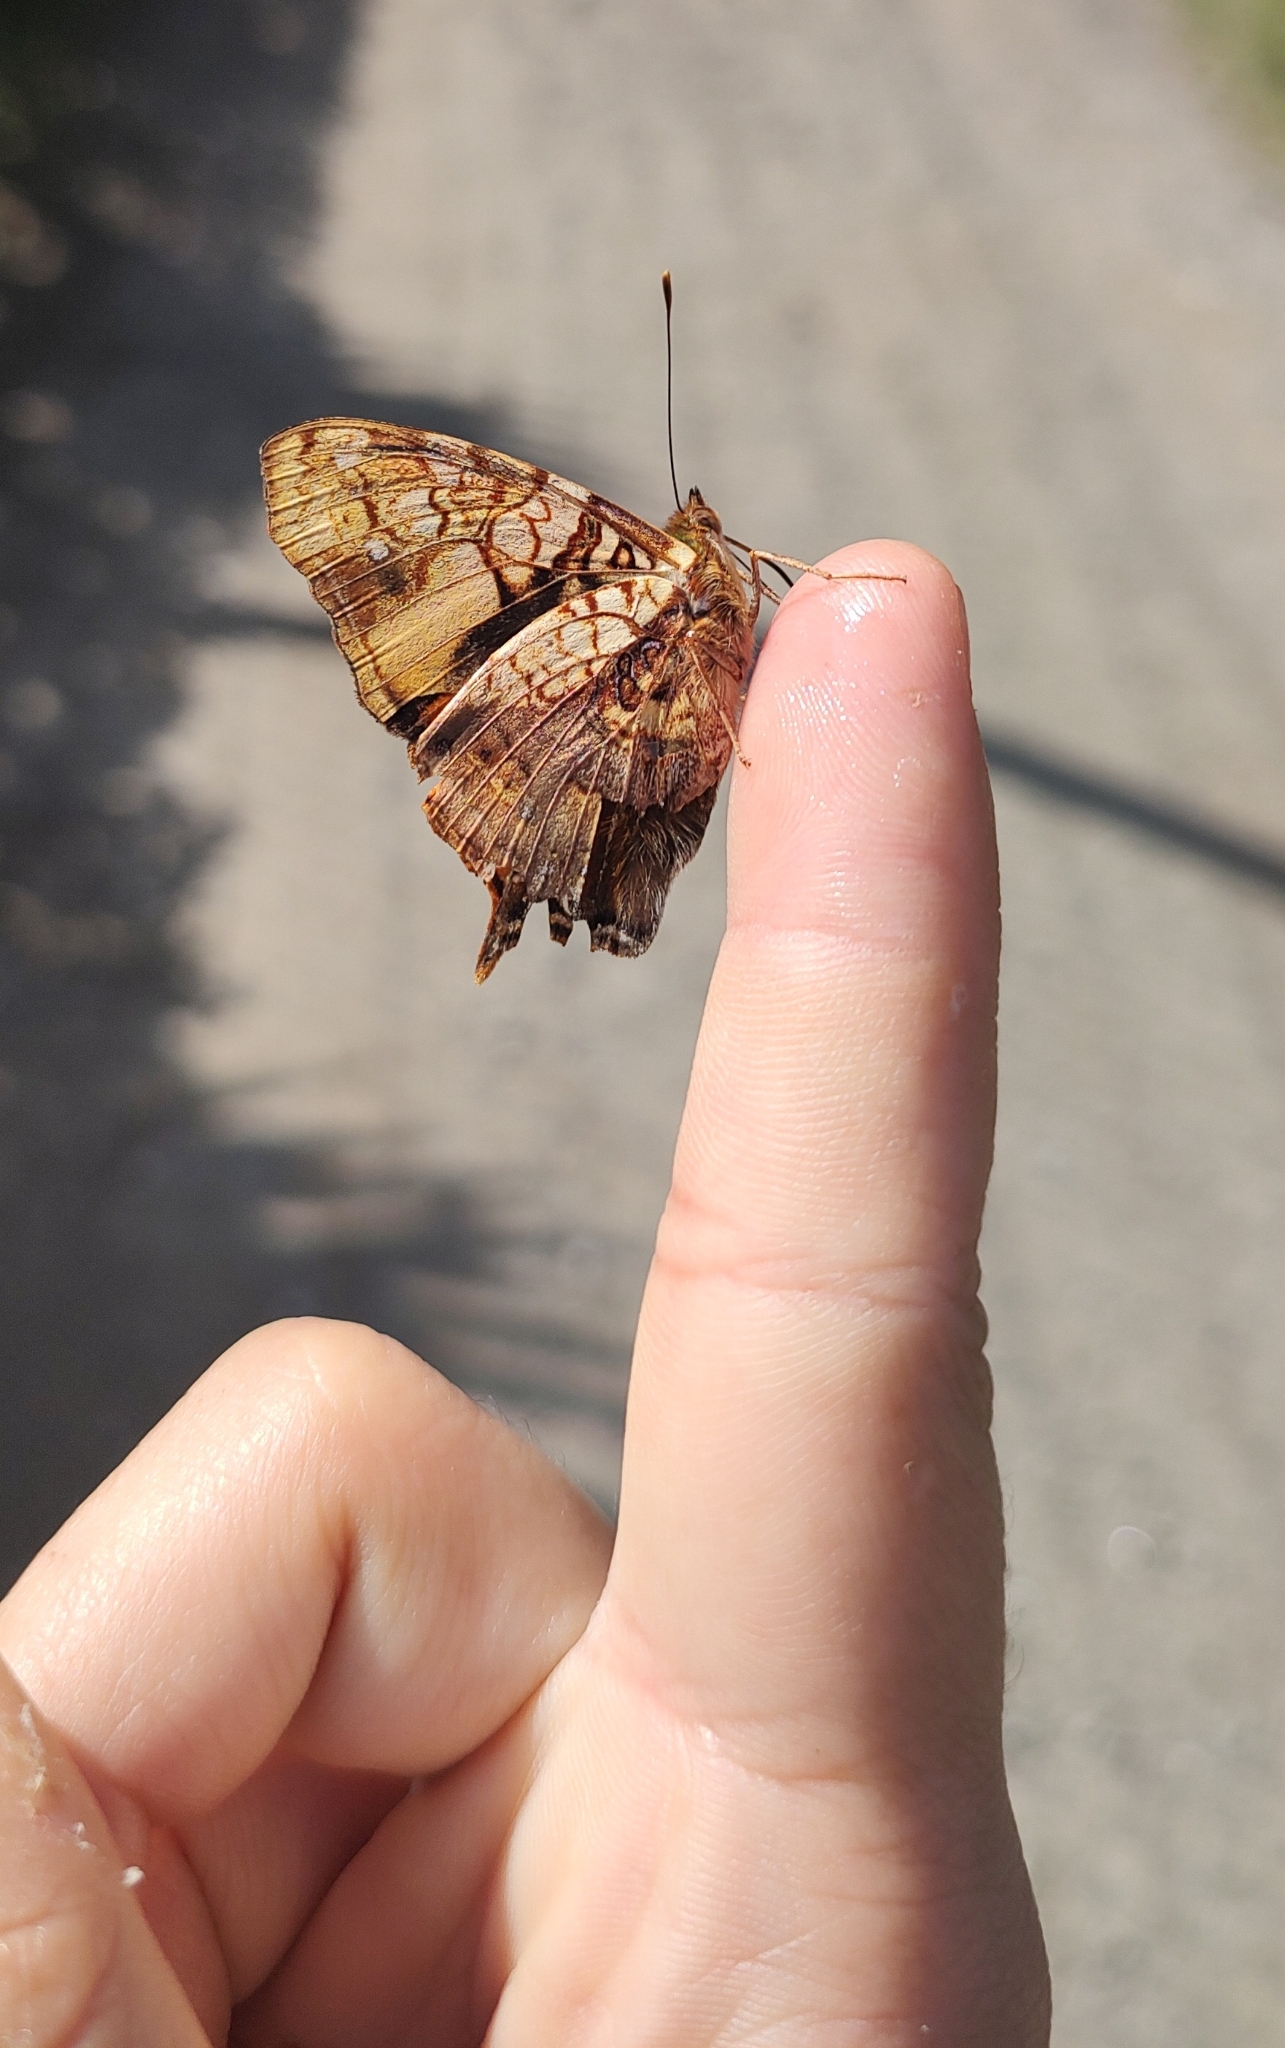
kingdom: Animalia
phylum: Arthropoda
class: Insecta
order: Lepidoptera
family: Nymphalidae
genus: Hypanartia
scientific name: Hypanartia lethe
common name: Orange mapwing
